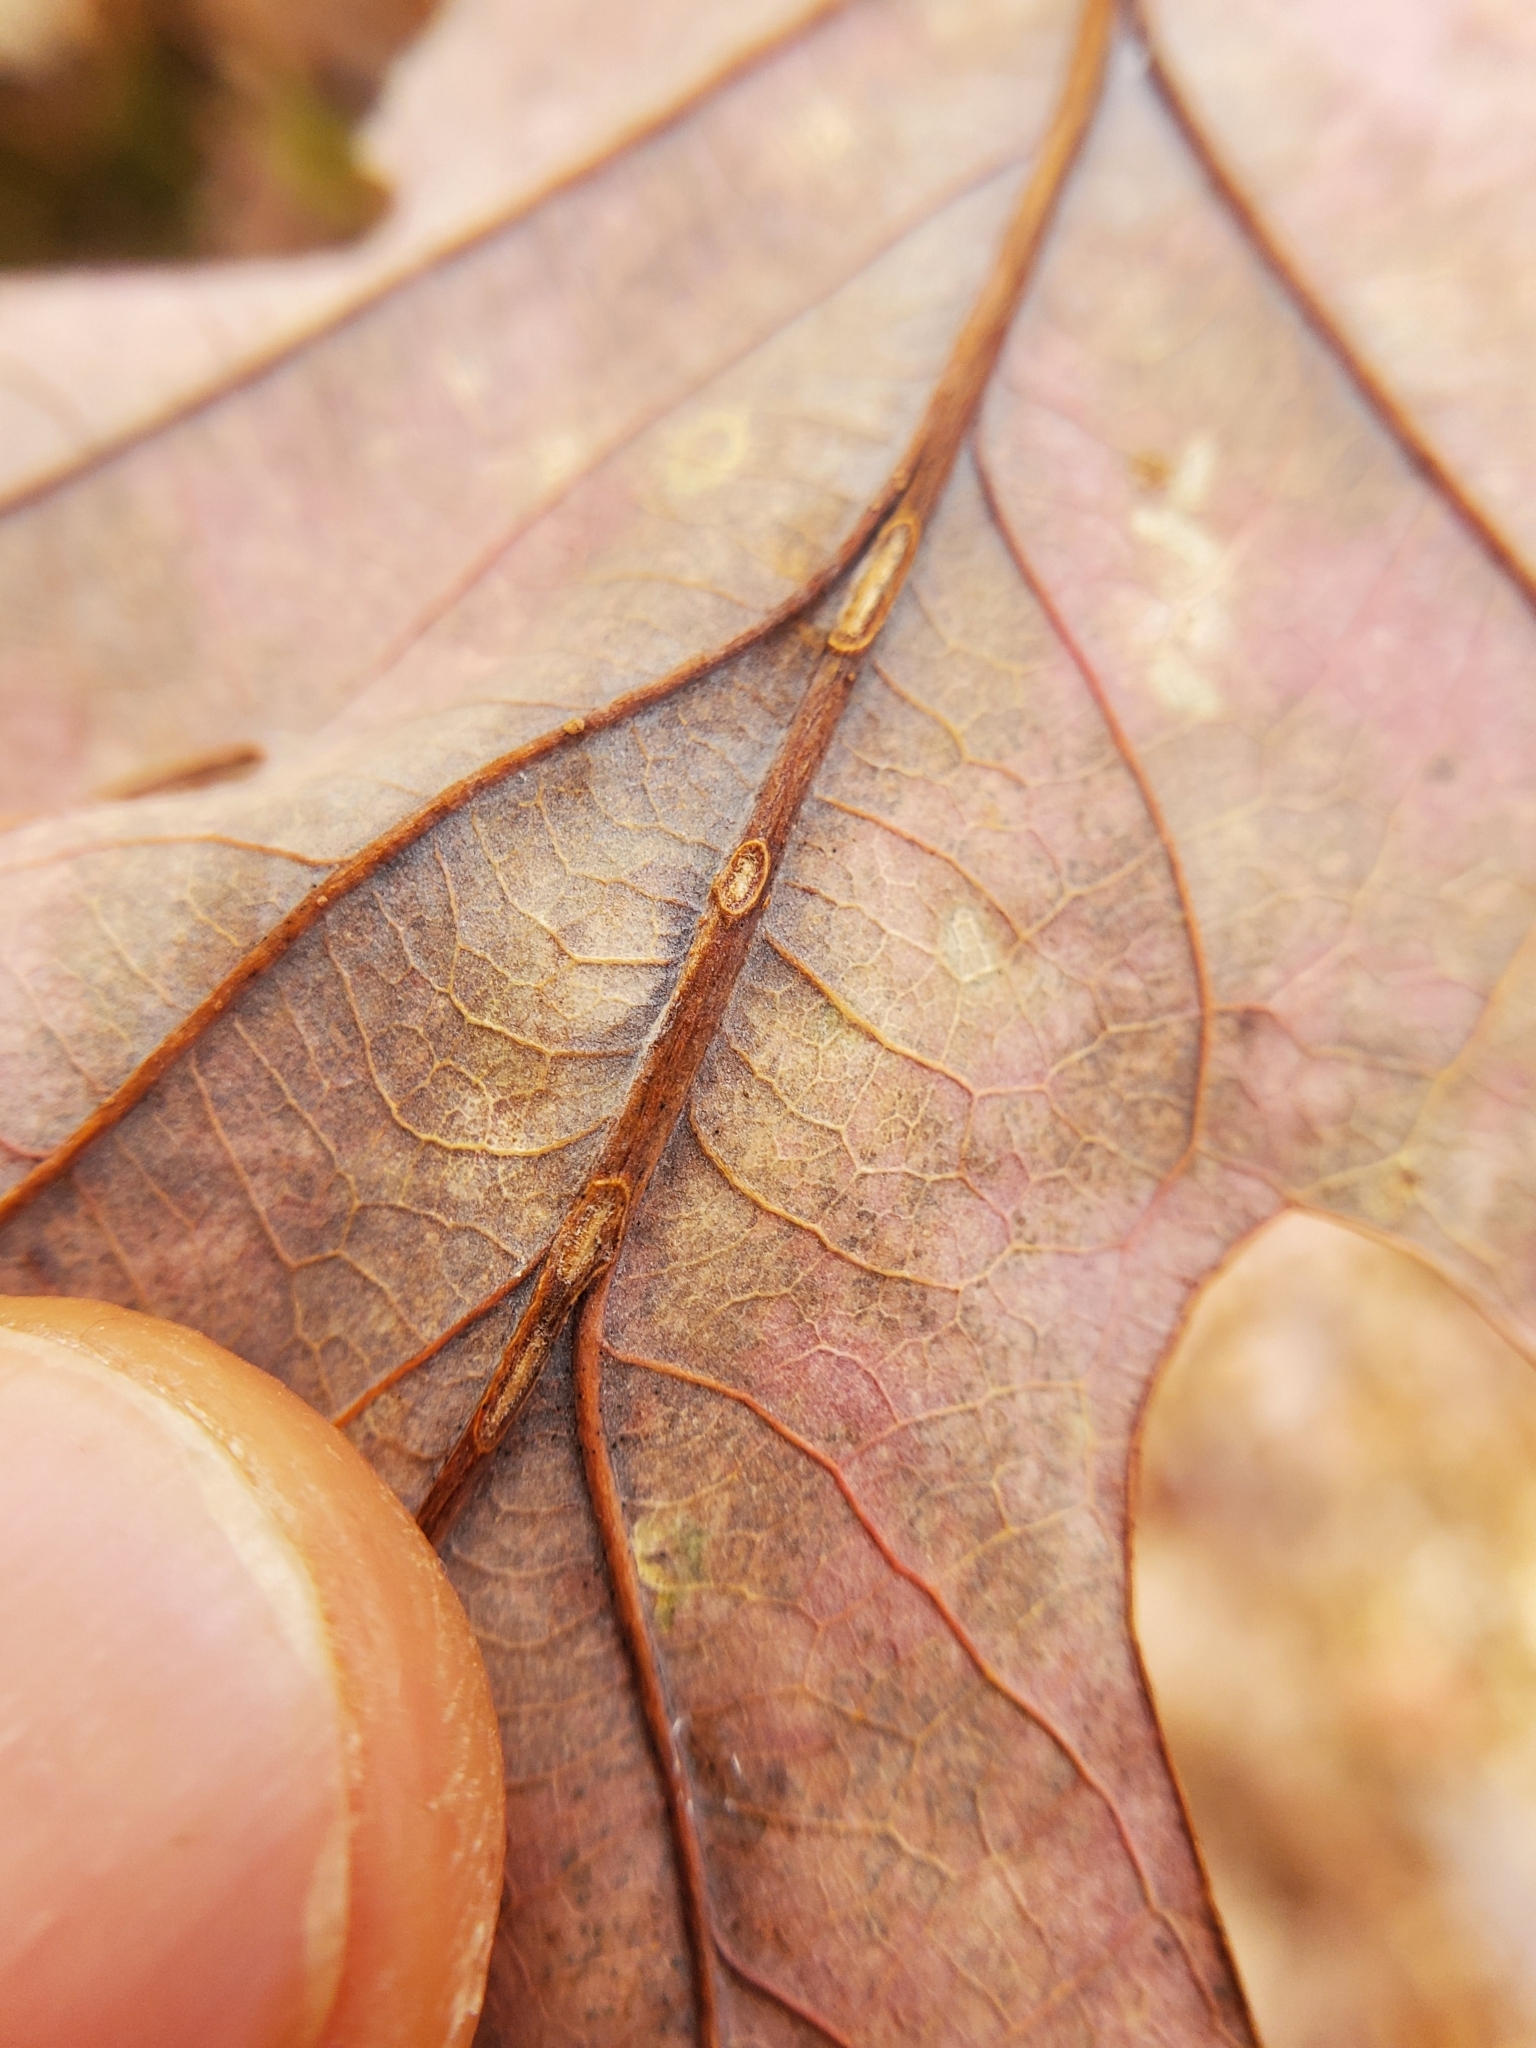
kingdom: Animalia
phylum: Arthropoda
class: Insecta
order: Hymenoptera
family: Cynipidae
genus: Acraspis
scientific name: Acraspis erinacei
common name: Hedgehog gall wasp
